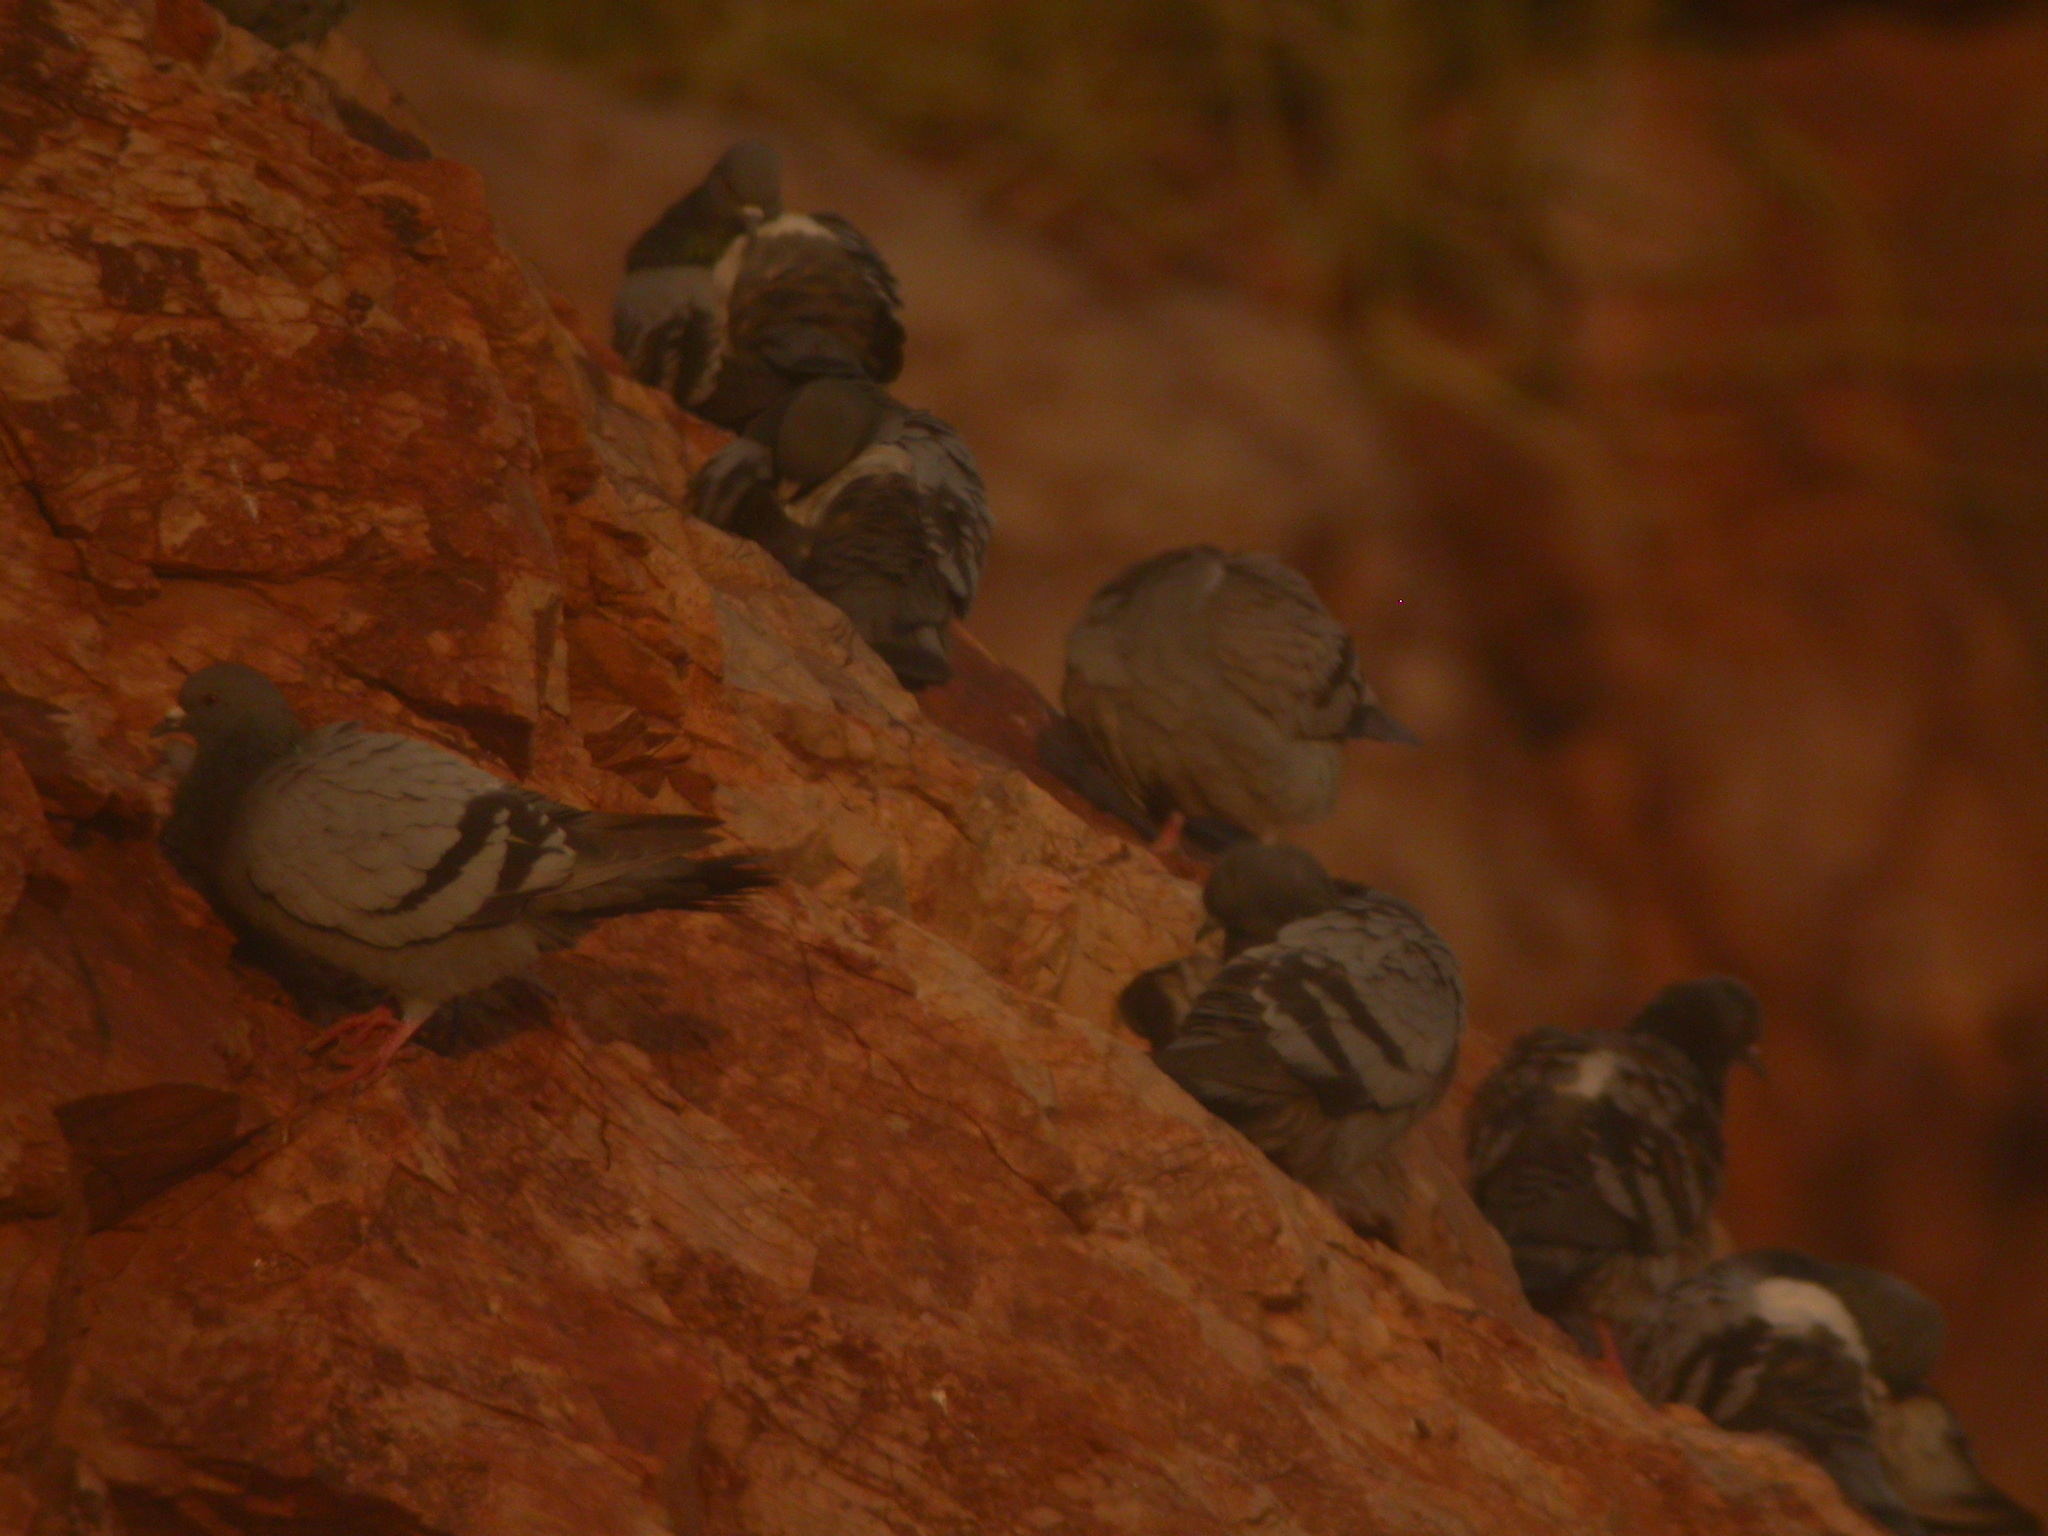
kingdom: Animalia
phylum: Chordata
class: Aves
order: Columbiformes
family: Columbidae
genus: Columba
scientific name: Columba livia
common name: Rock pigeon
